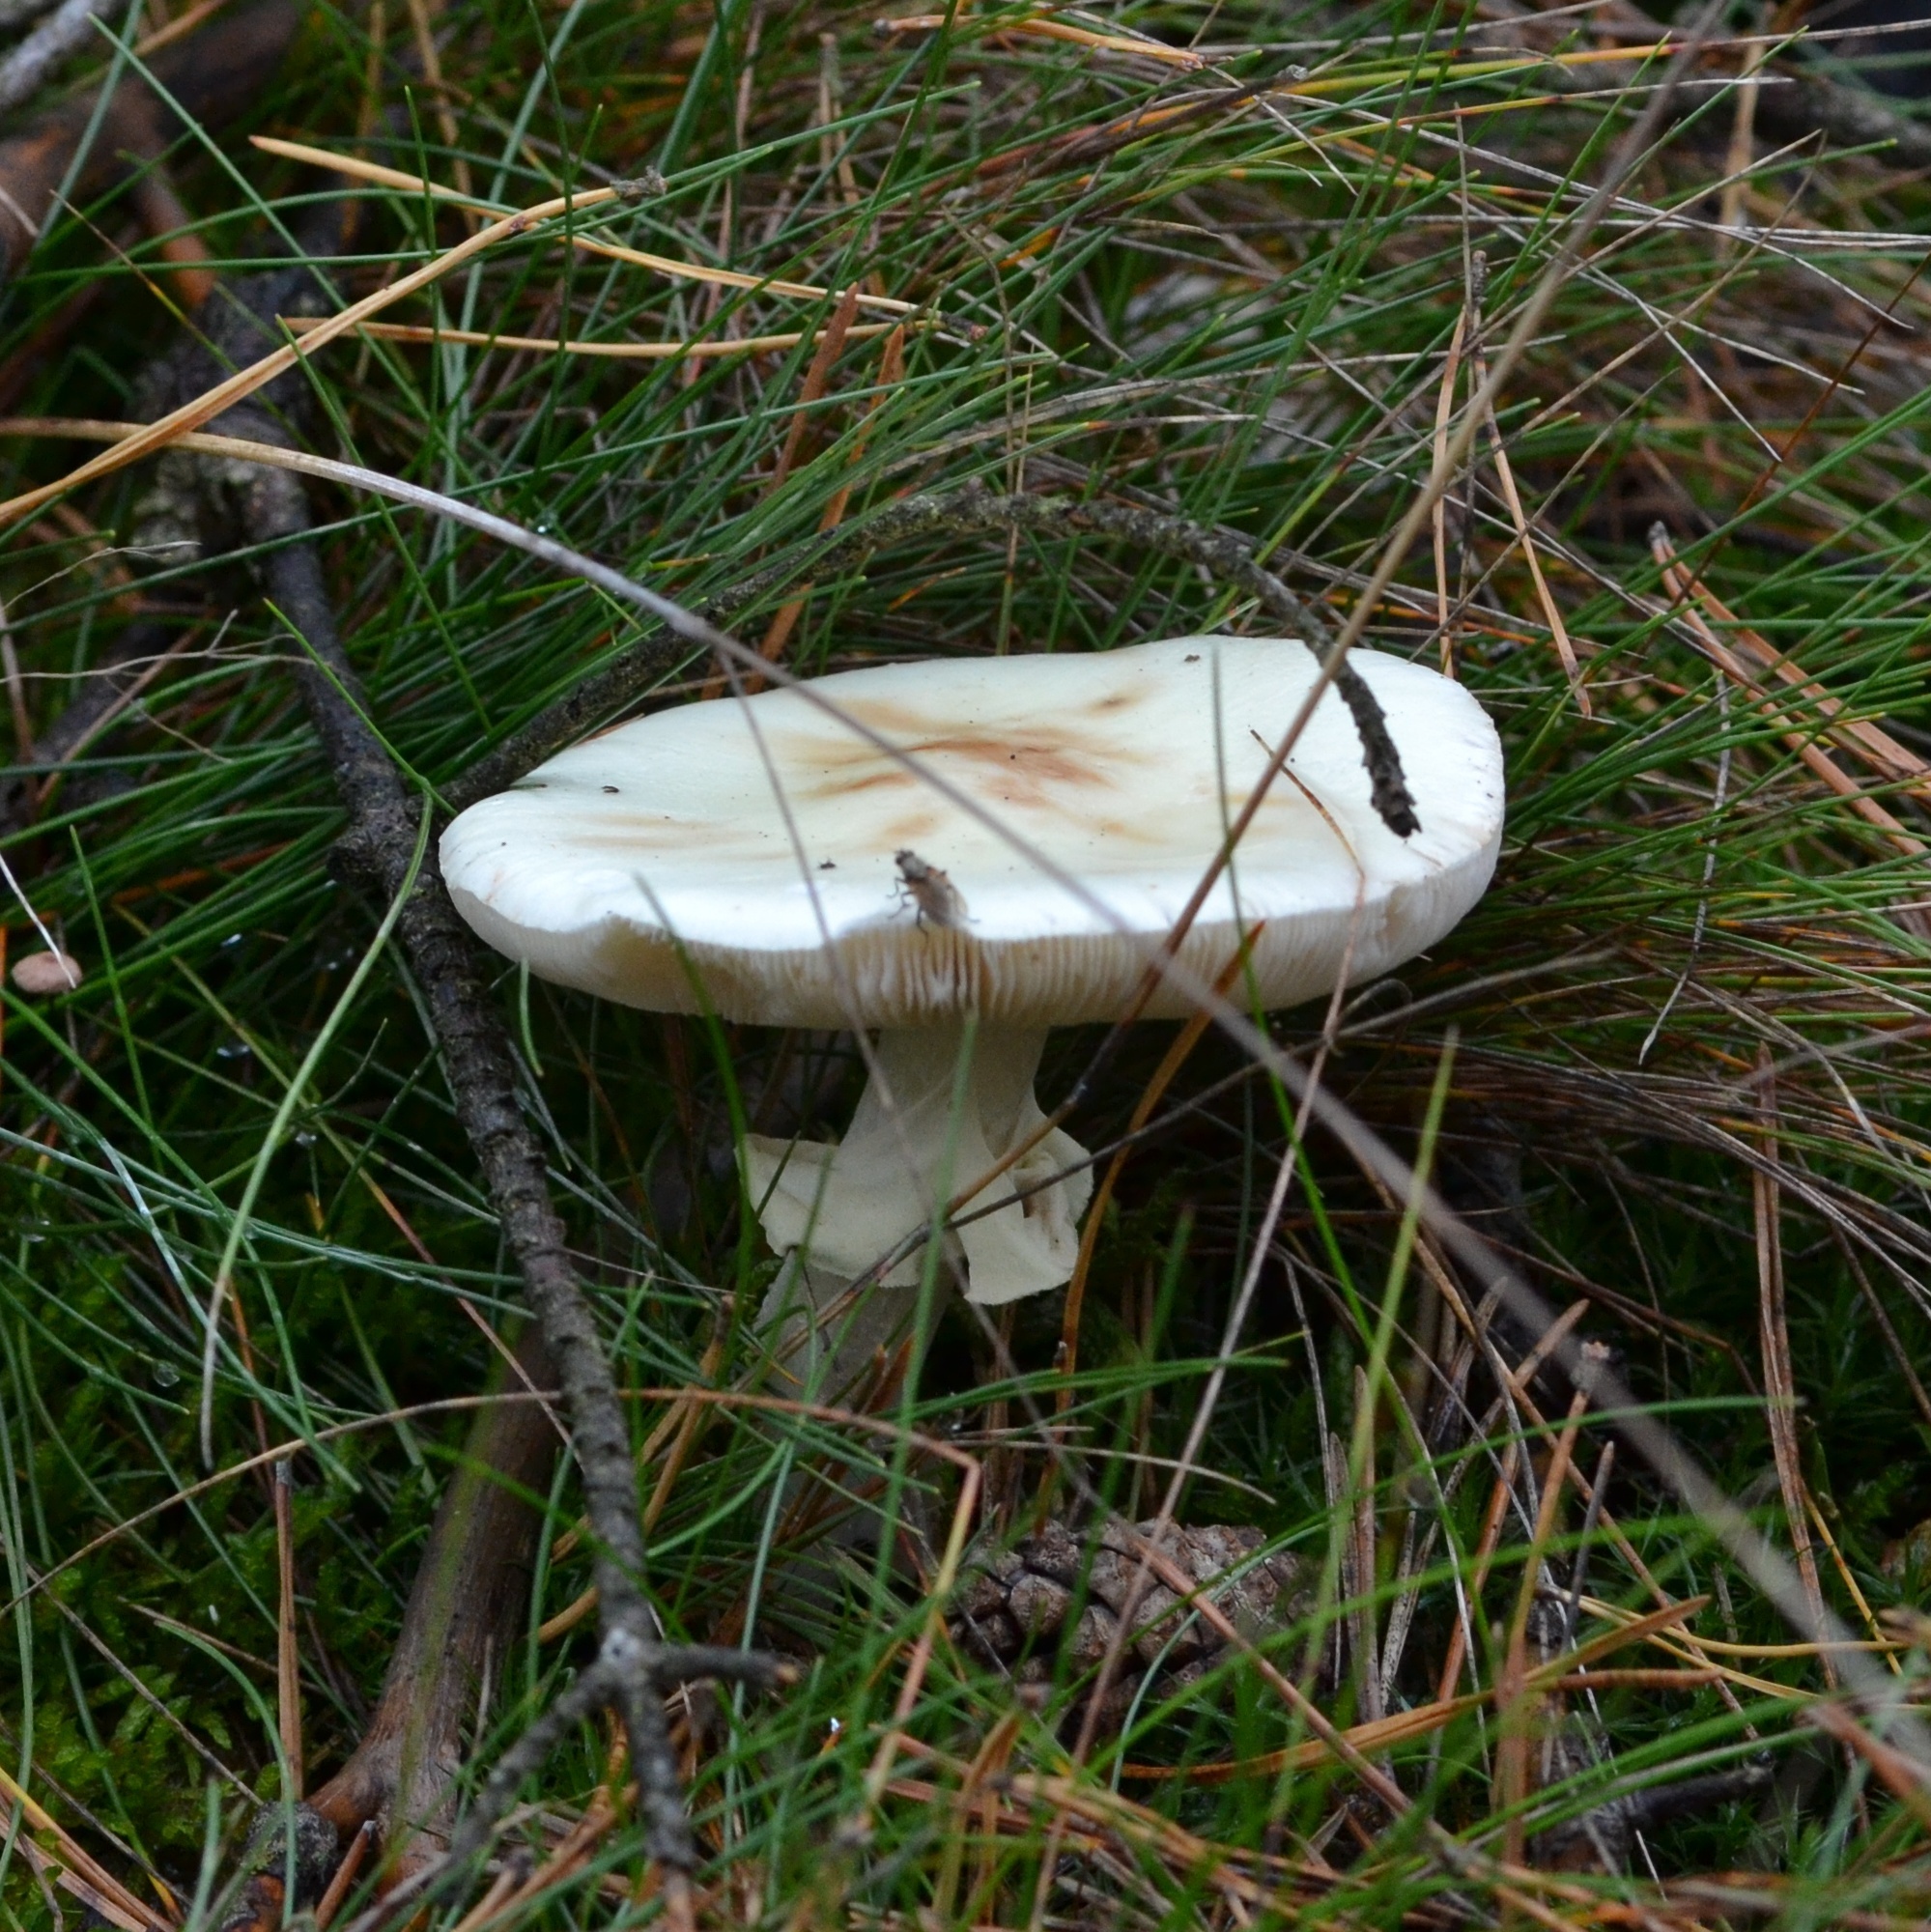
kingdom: Fungi
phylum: Basidiomycota
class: Agaricomycetes
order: Agaricales
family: Amanitaceae
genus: Amanita
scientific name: Amanita citrina
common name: False death-cap
